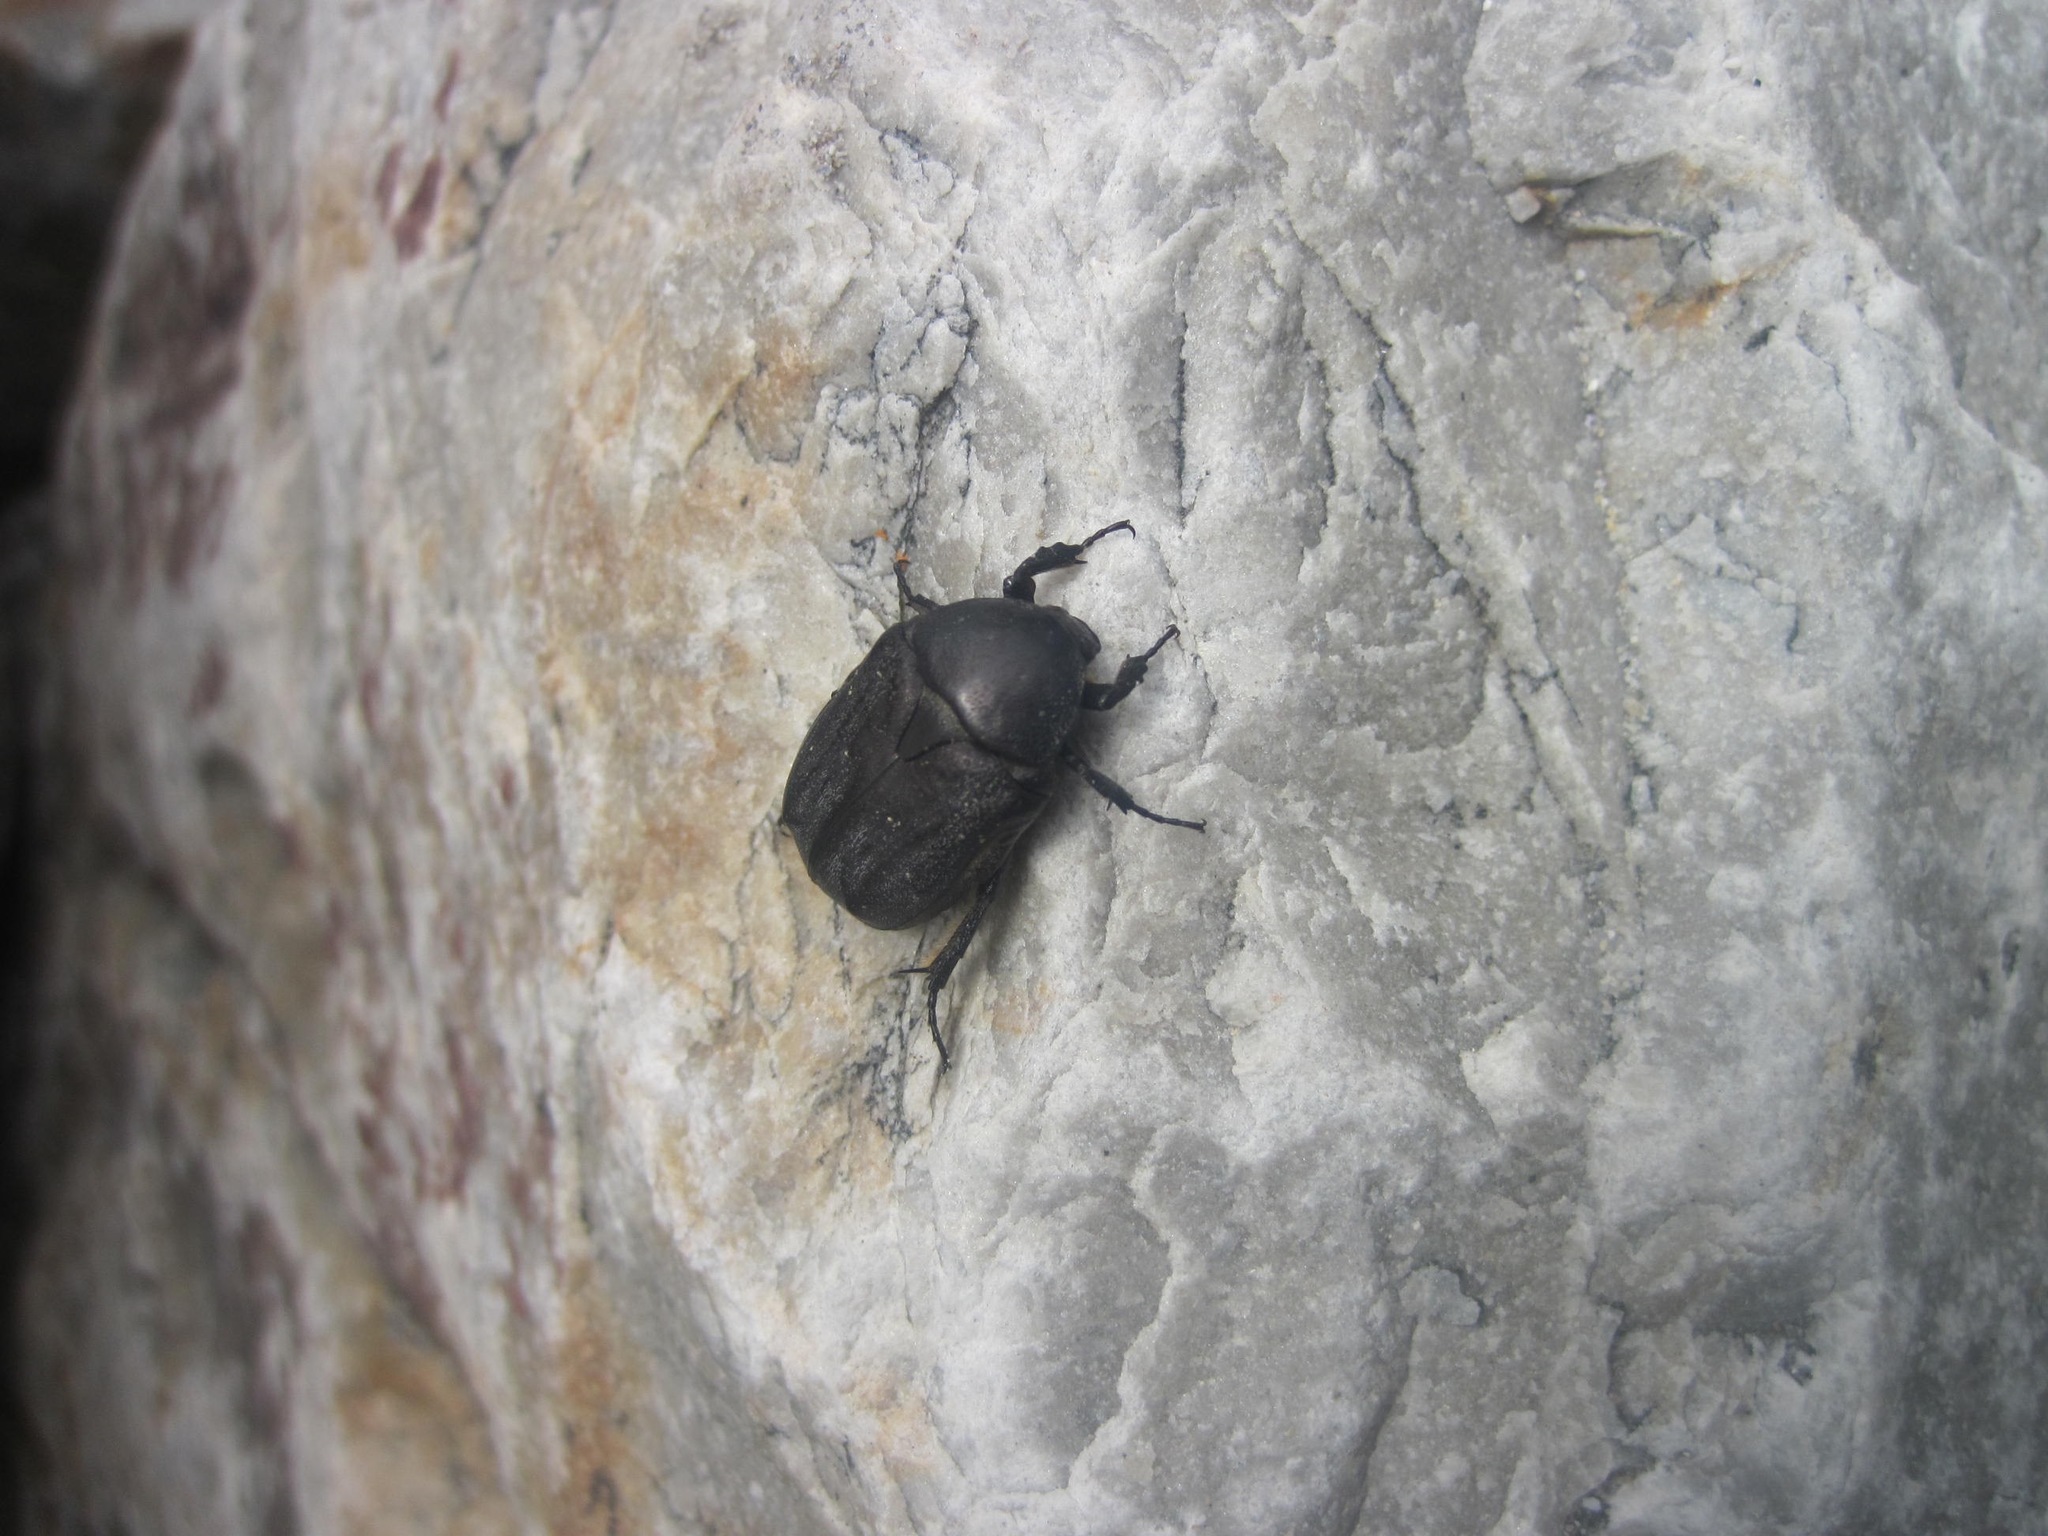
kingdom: Animalia
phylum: Arthropoda
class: Insecta
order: Coleoptera
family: Scarabaeidae
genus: Protaetia
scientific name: Protaetia morio
